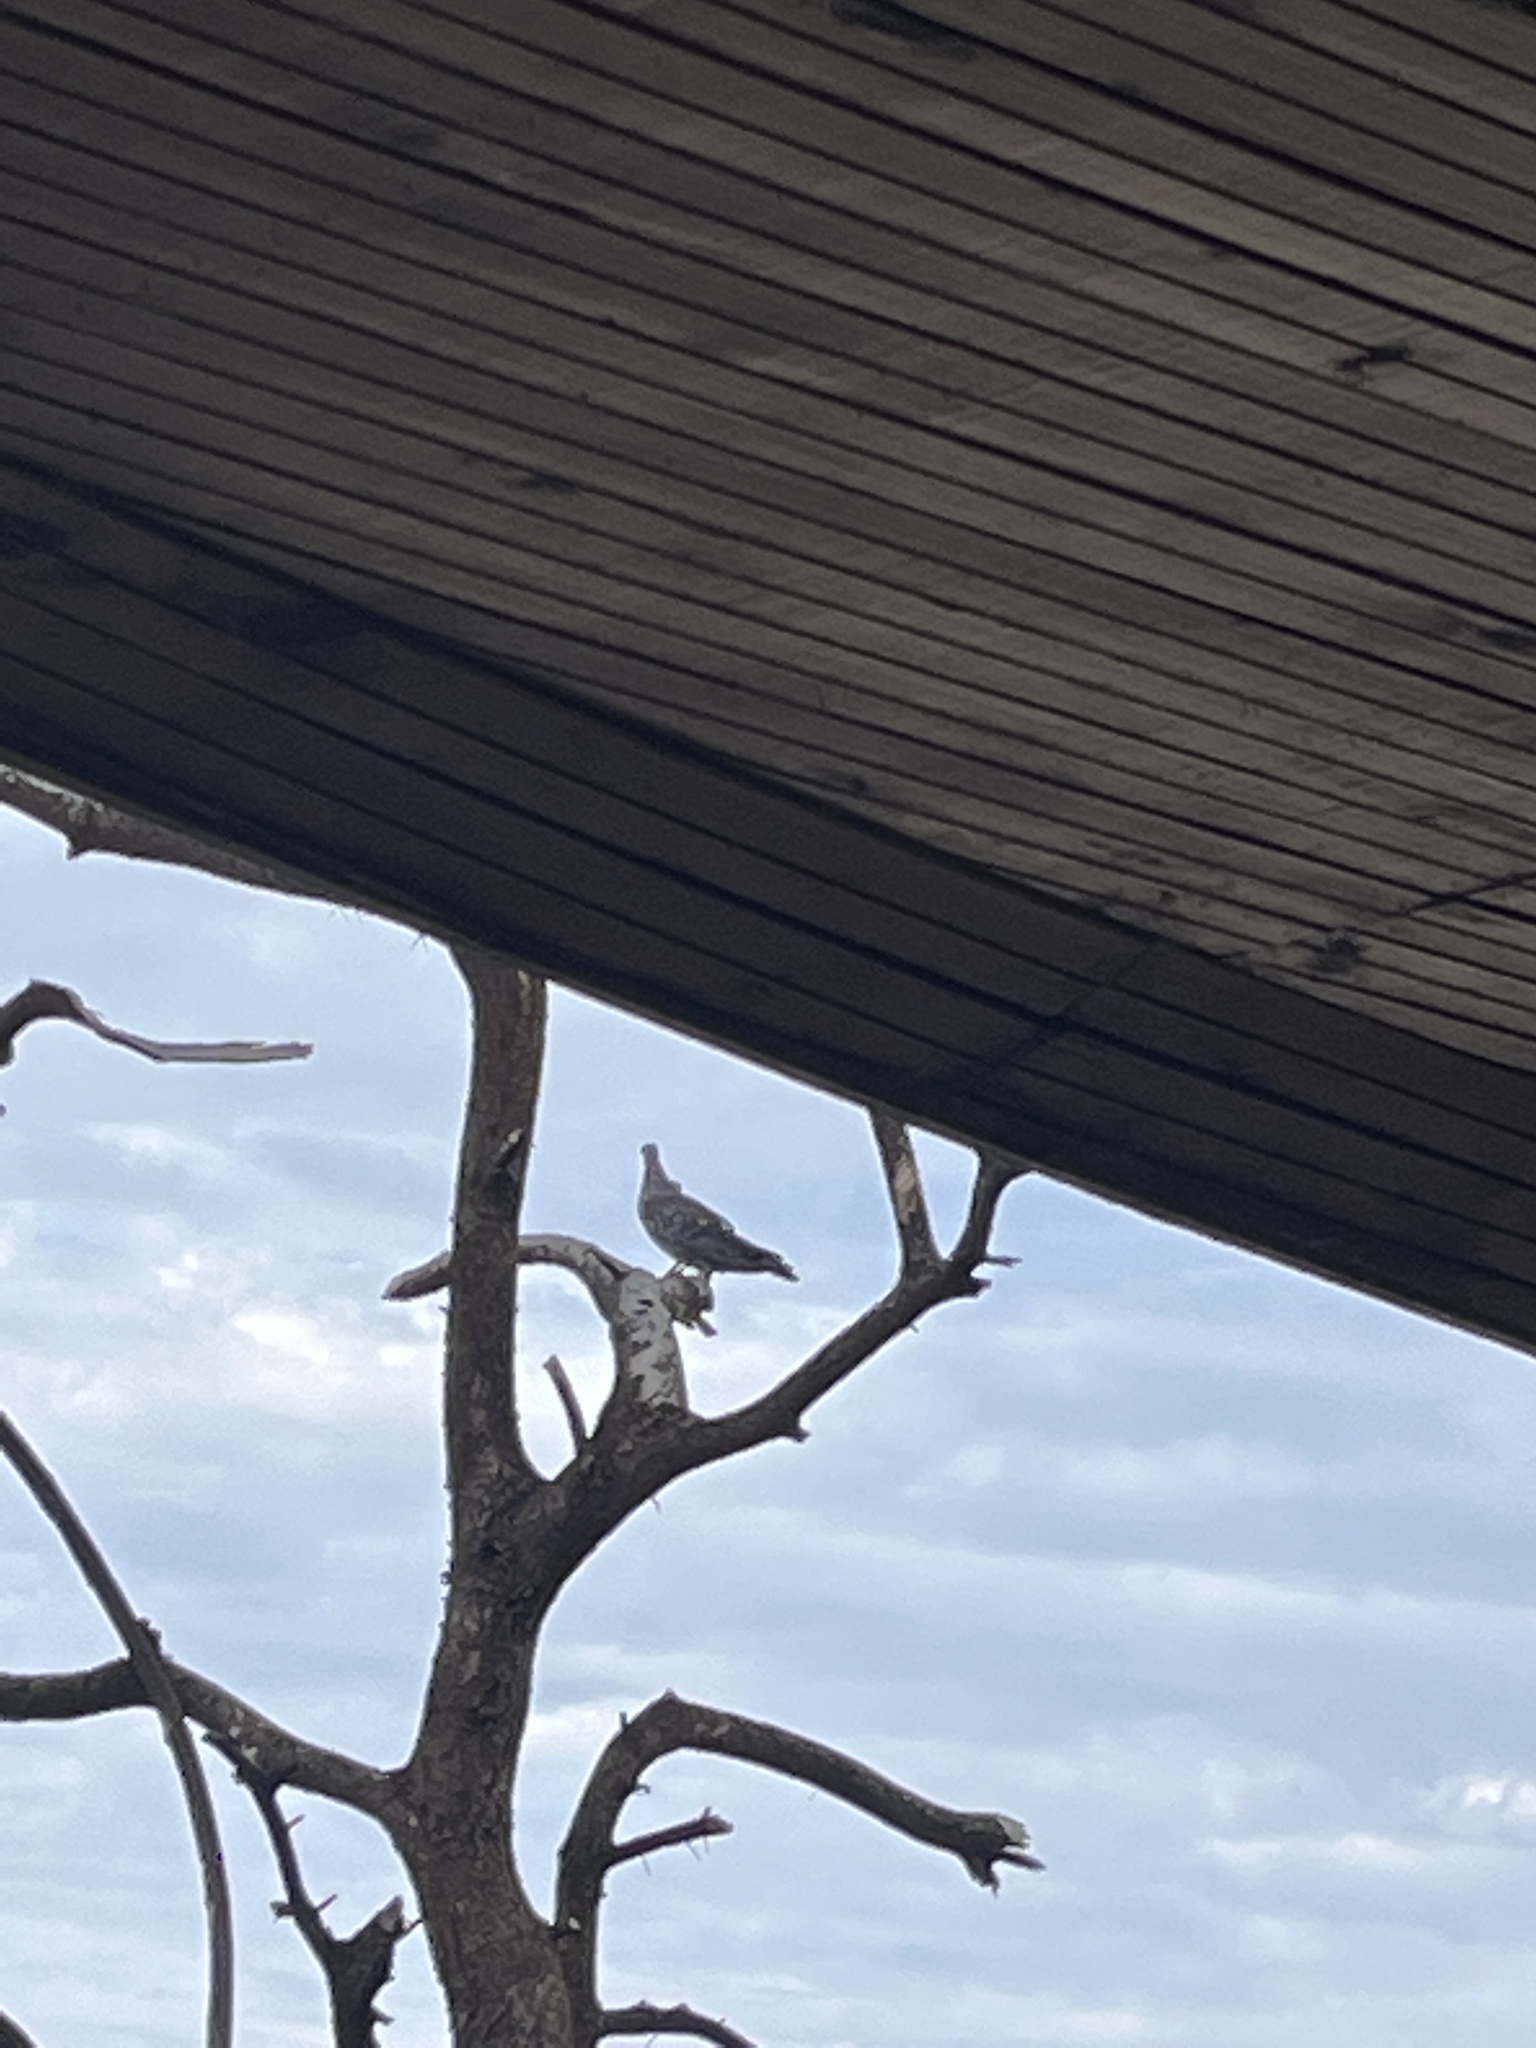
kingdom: Animalia
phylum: Chordata
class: Aves
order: Columbiformes
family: Columbidae
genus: Columba
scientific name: Columba guinea
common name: Speckled pigeon
